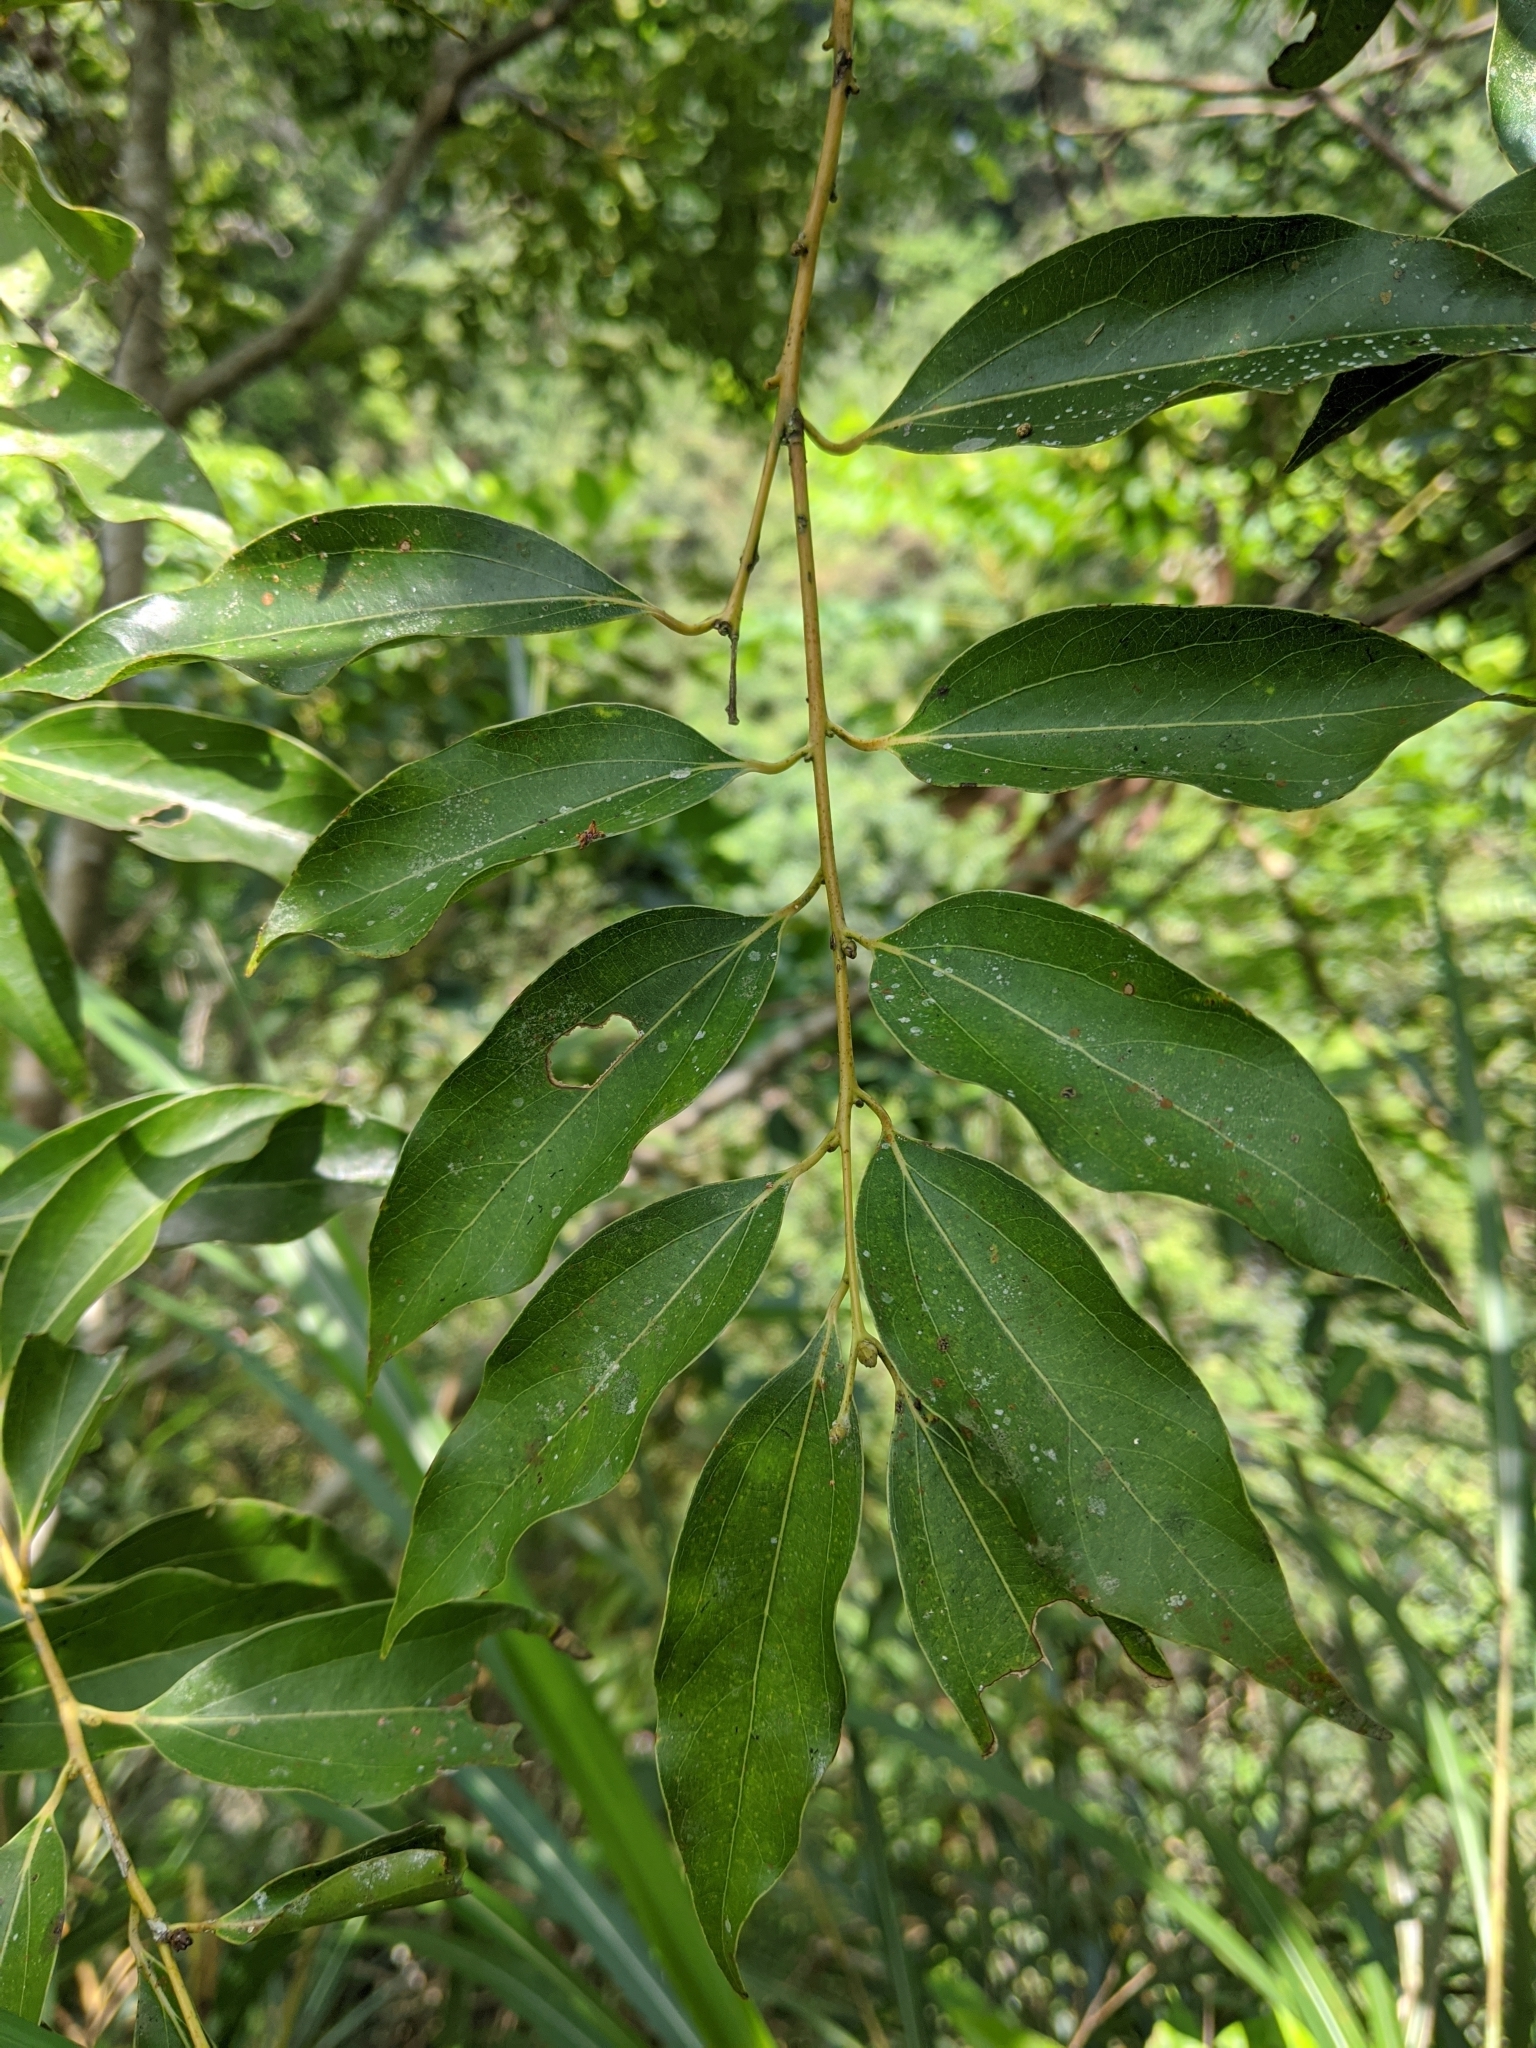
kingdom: Plantae
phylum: Tracheophyta
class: Magnoliopsida
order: Laurales
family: Lauraceae
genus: Cinnamomum
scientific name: Cinnamomum chekiangense
